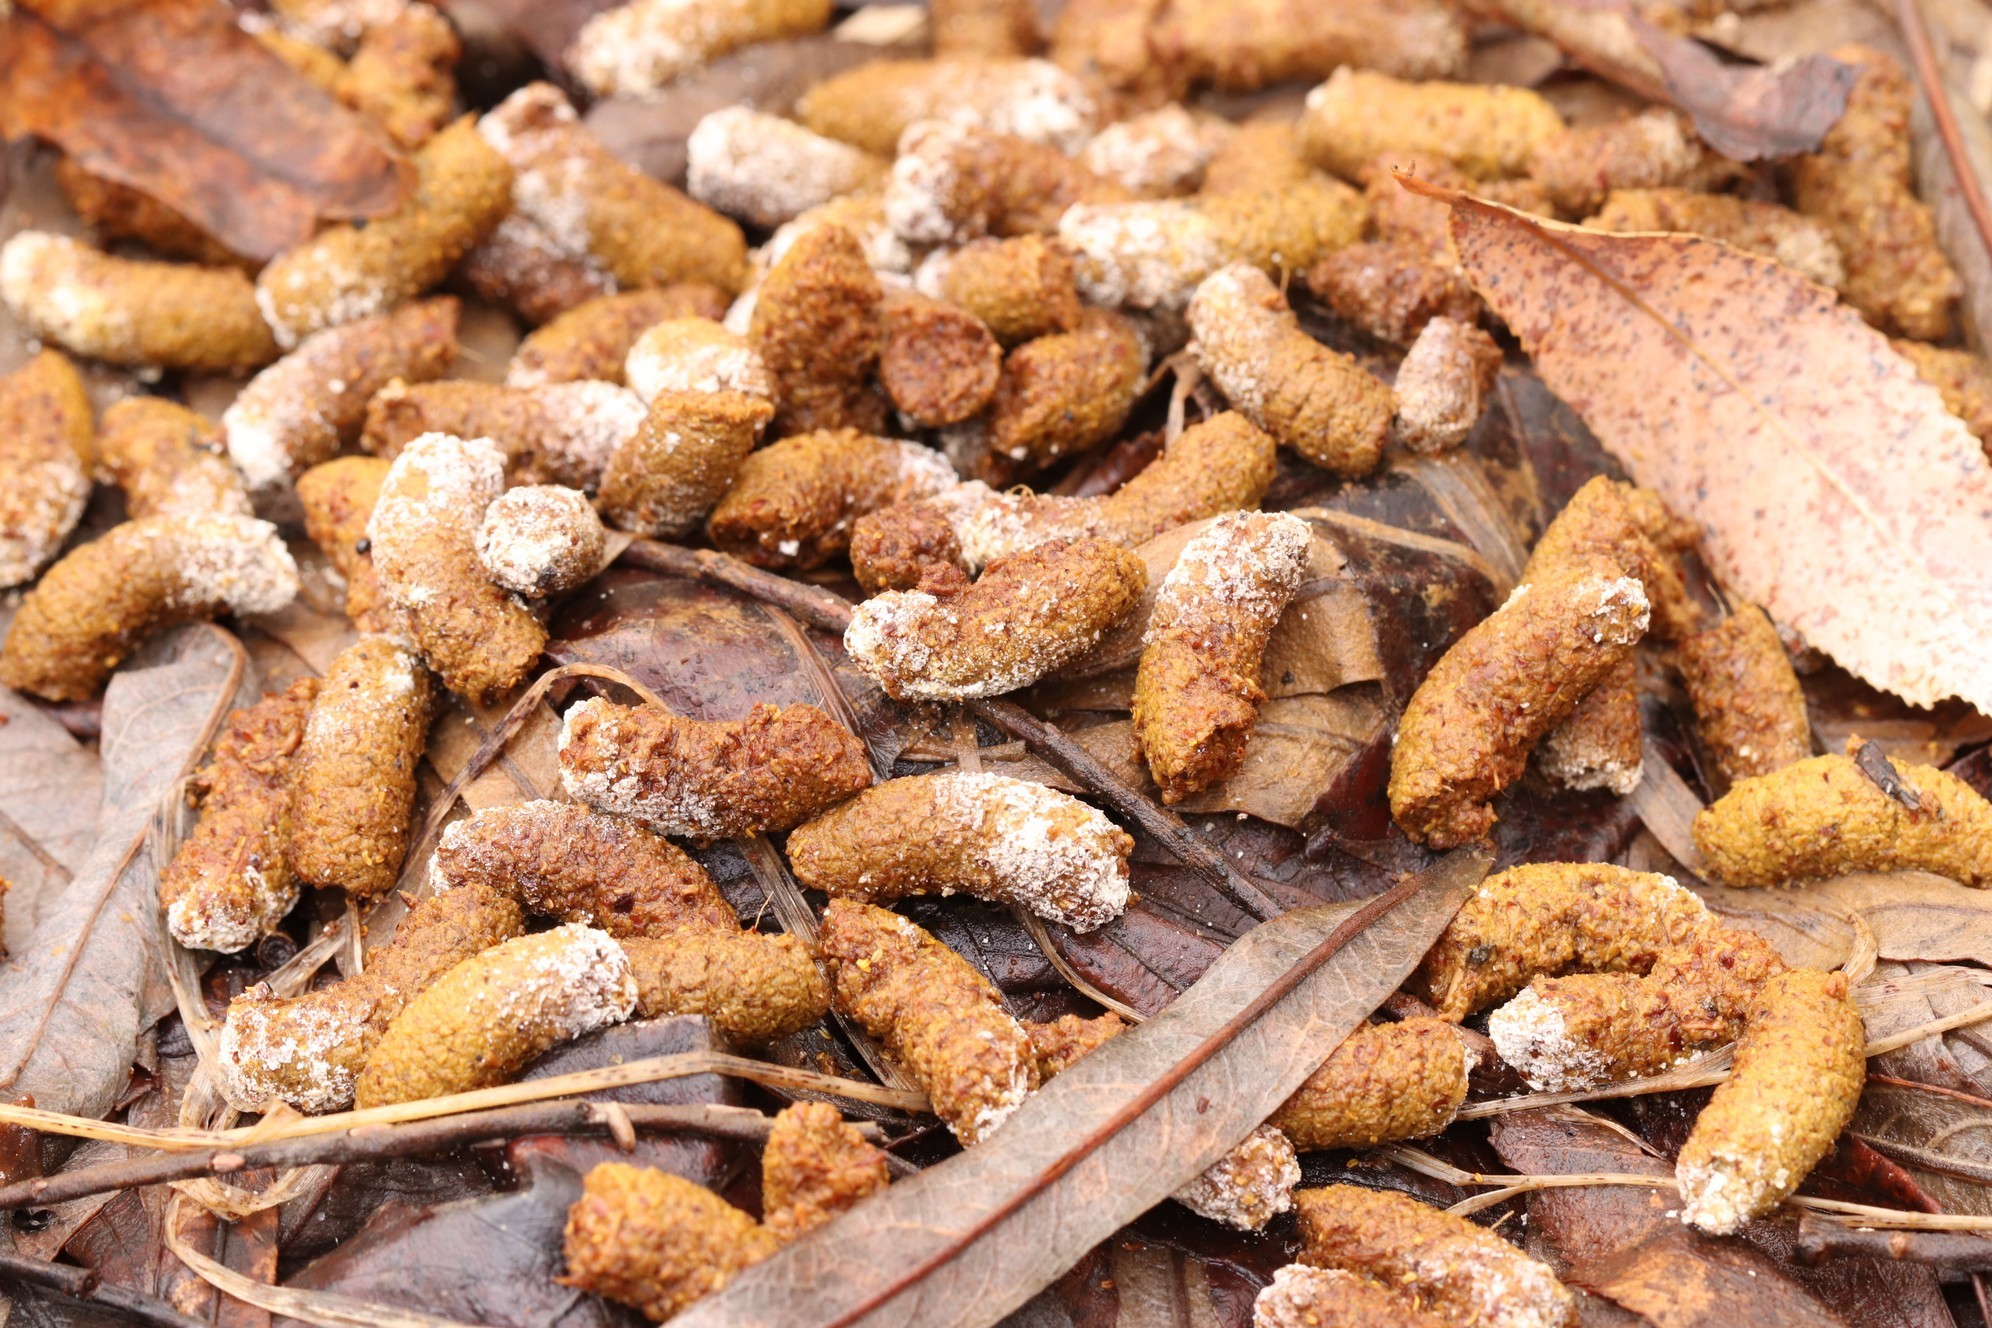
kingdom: Animalia
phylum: Chordata
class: Aves
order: Galliformes
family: Phasianidae
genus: Tetrastes
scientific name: Tetrastes bonasia
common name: Hazel grouse
